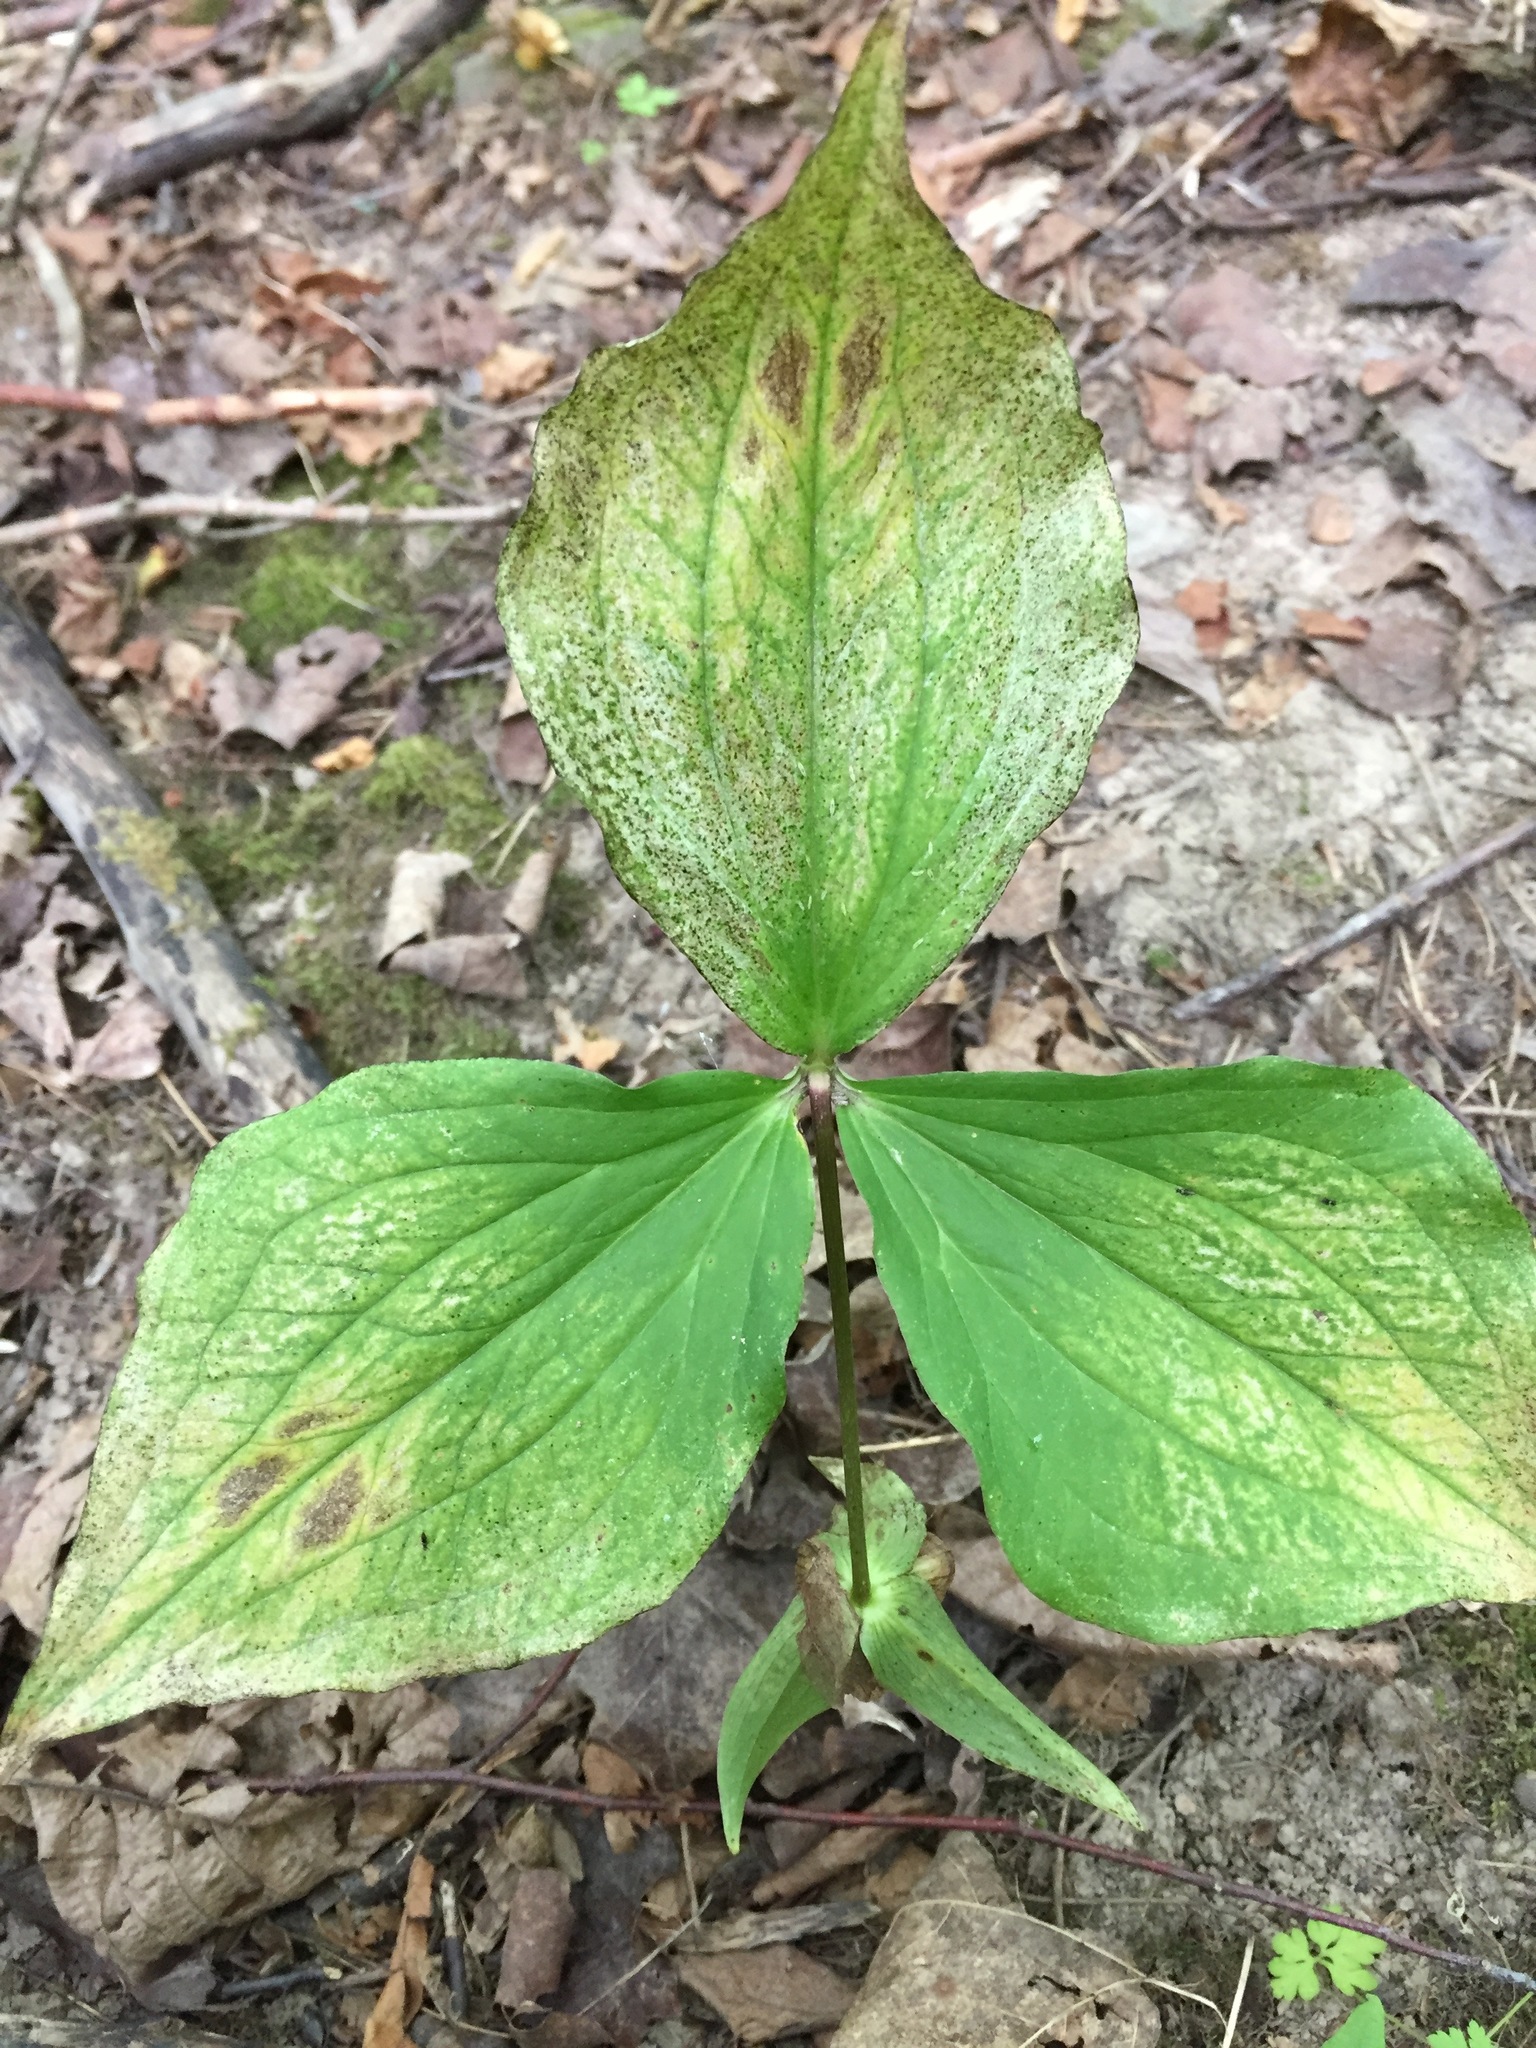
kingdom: Plantae
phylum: Tracheophyta
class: Liliopsida
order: Liliales
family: Melanthiaceae
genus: Trillium
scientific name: Trillium grandiflorum
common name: Great white trillium
